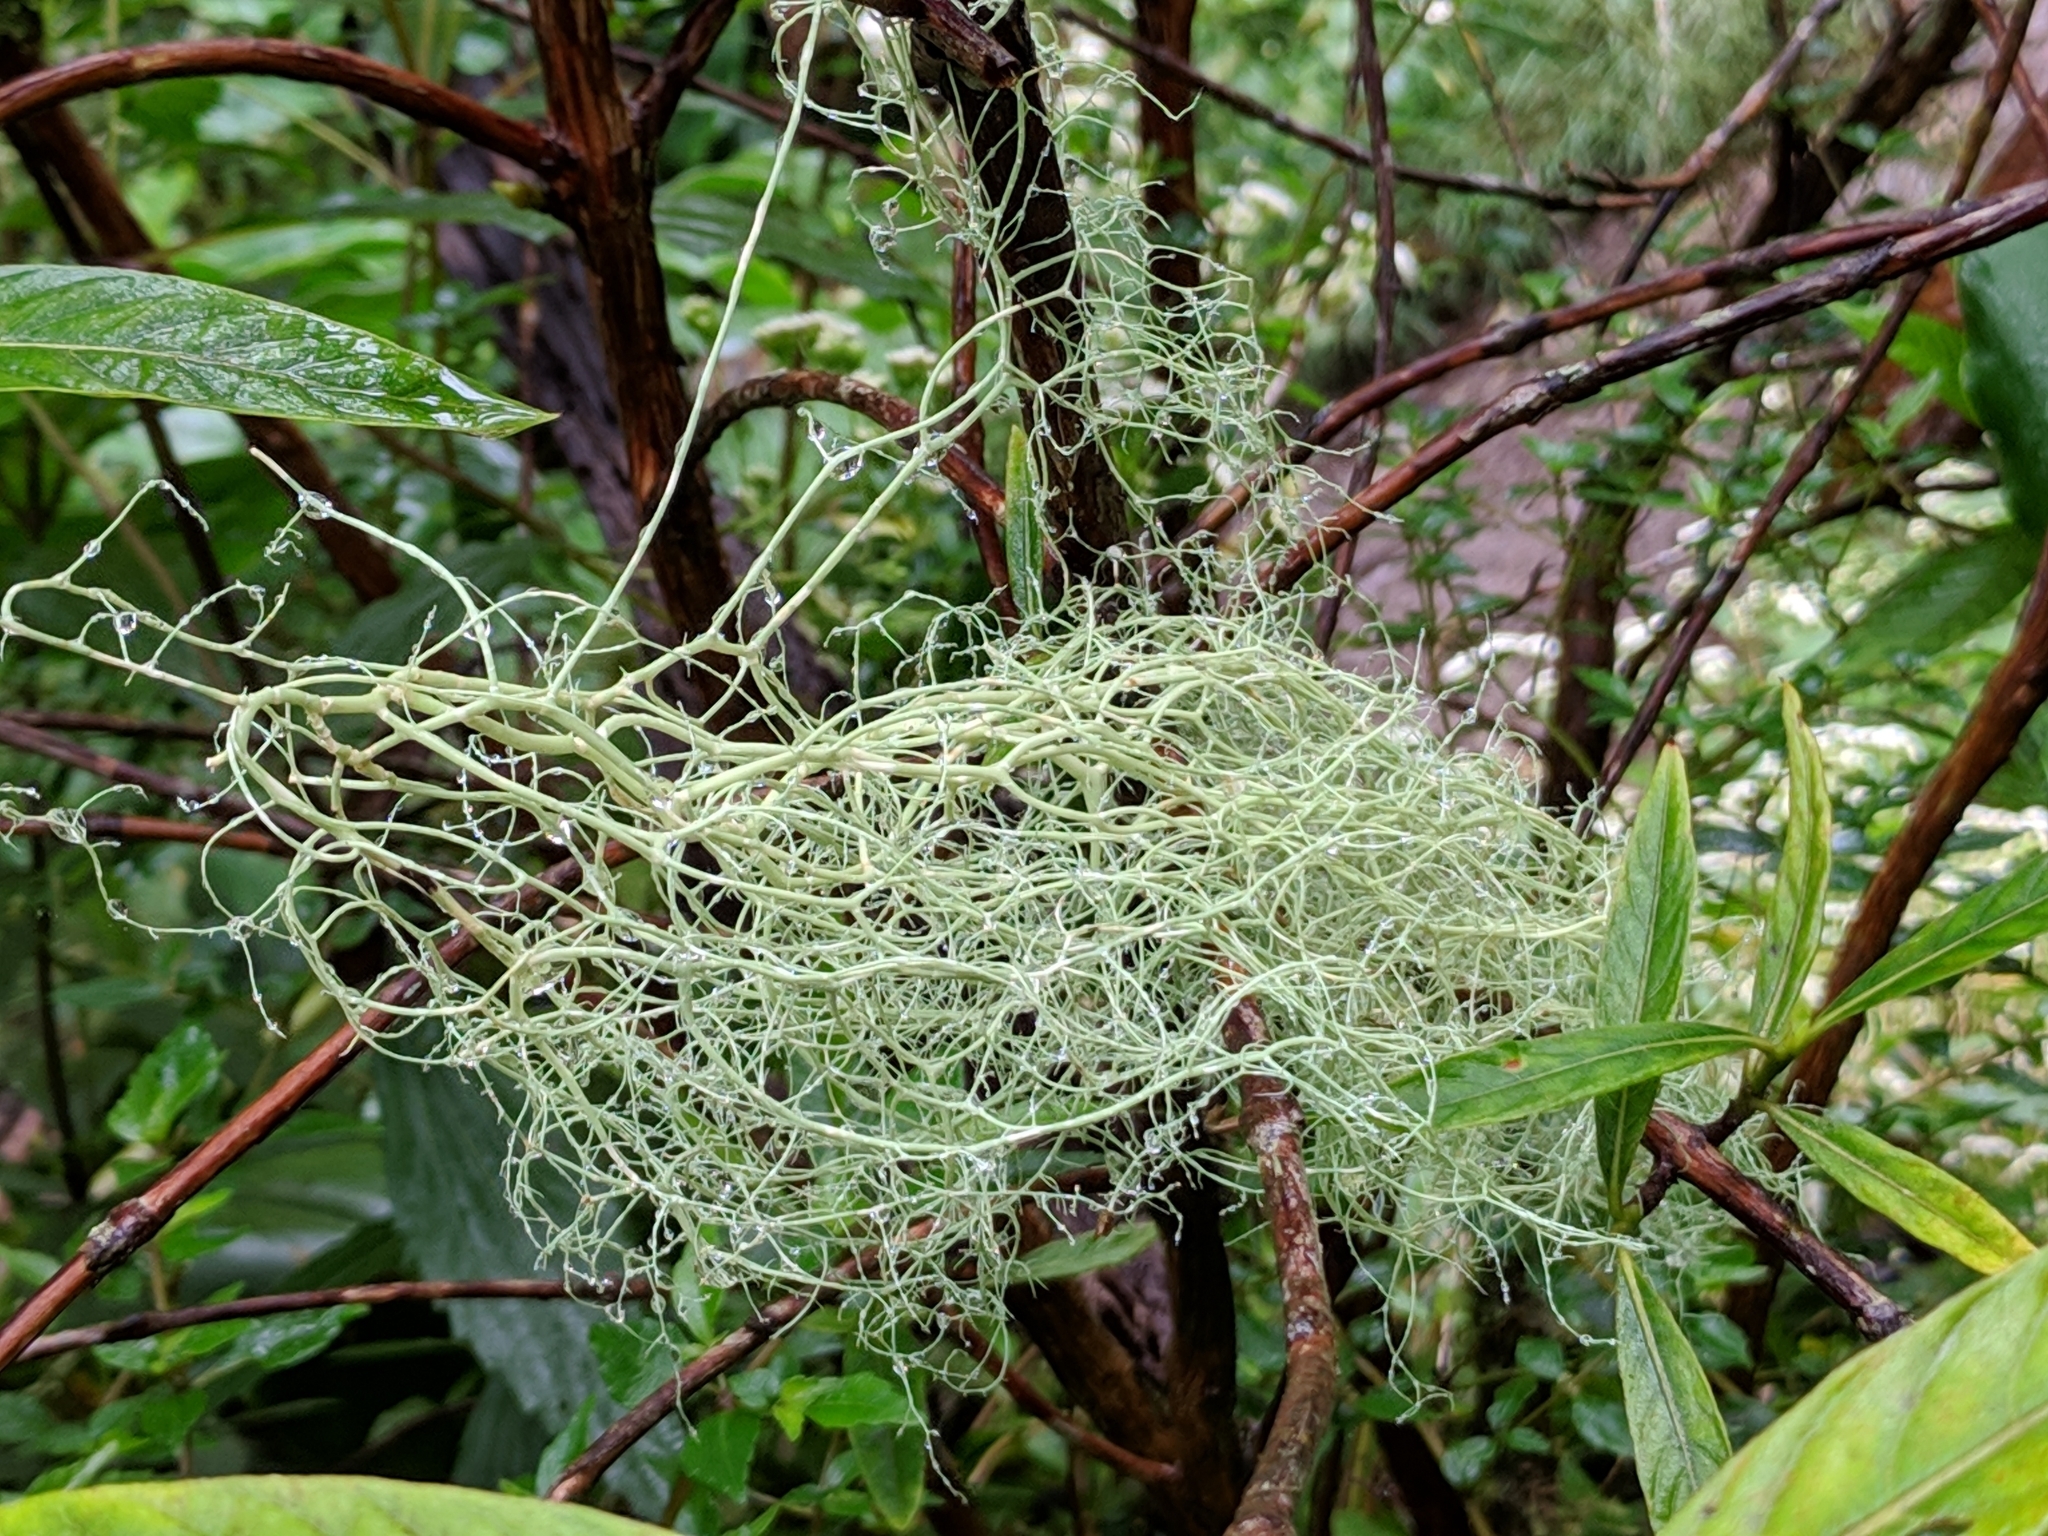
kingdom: Fungi
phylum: Ascomycota
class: Lecanoromycetes
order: Lecanorales
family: Parmeliaceae
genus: Usnea
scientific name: Usnea barbata
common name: Old man's beard lichen
